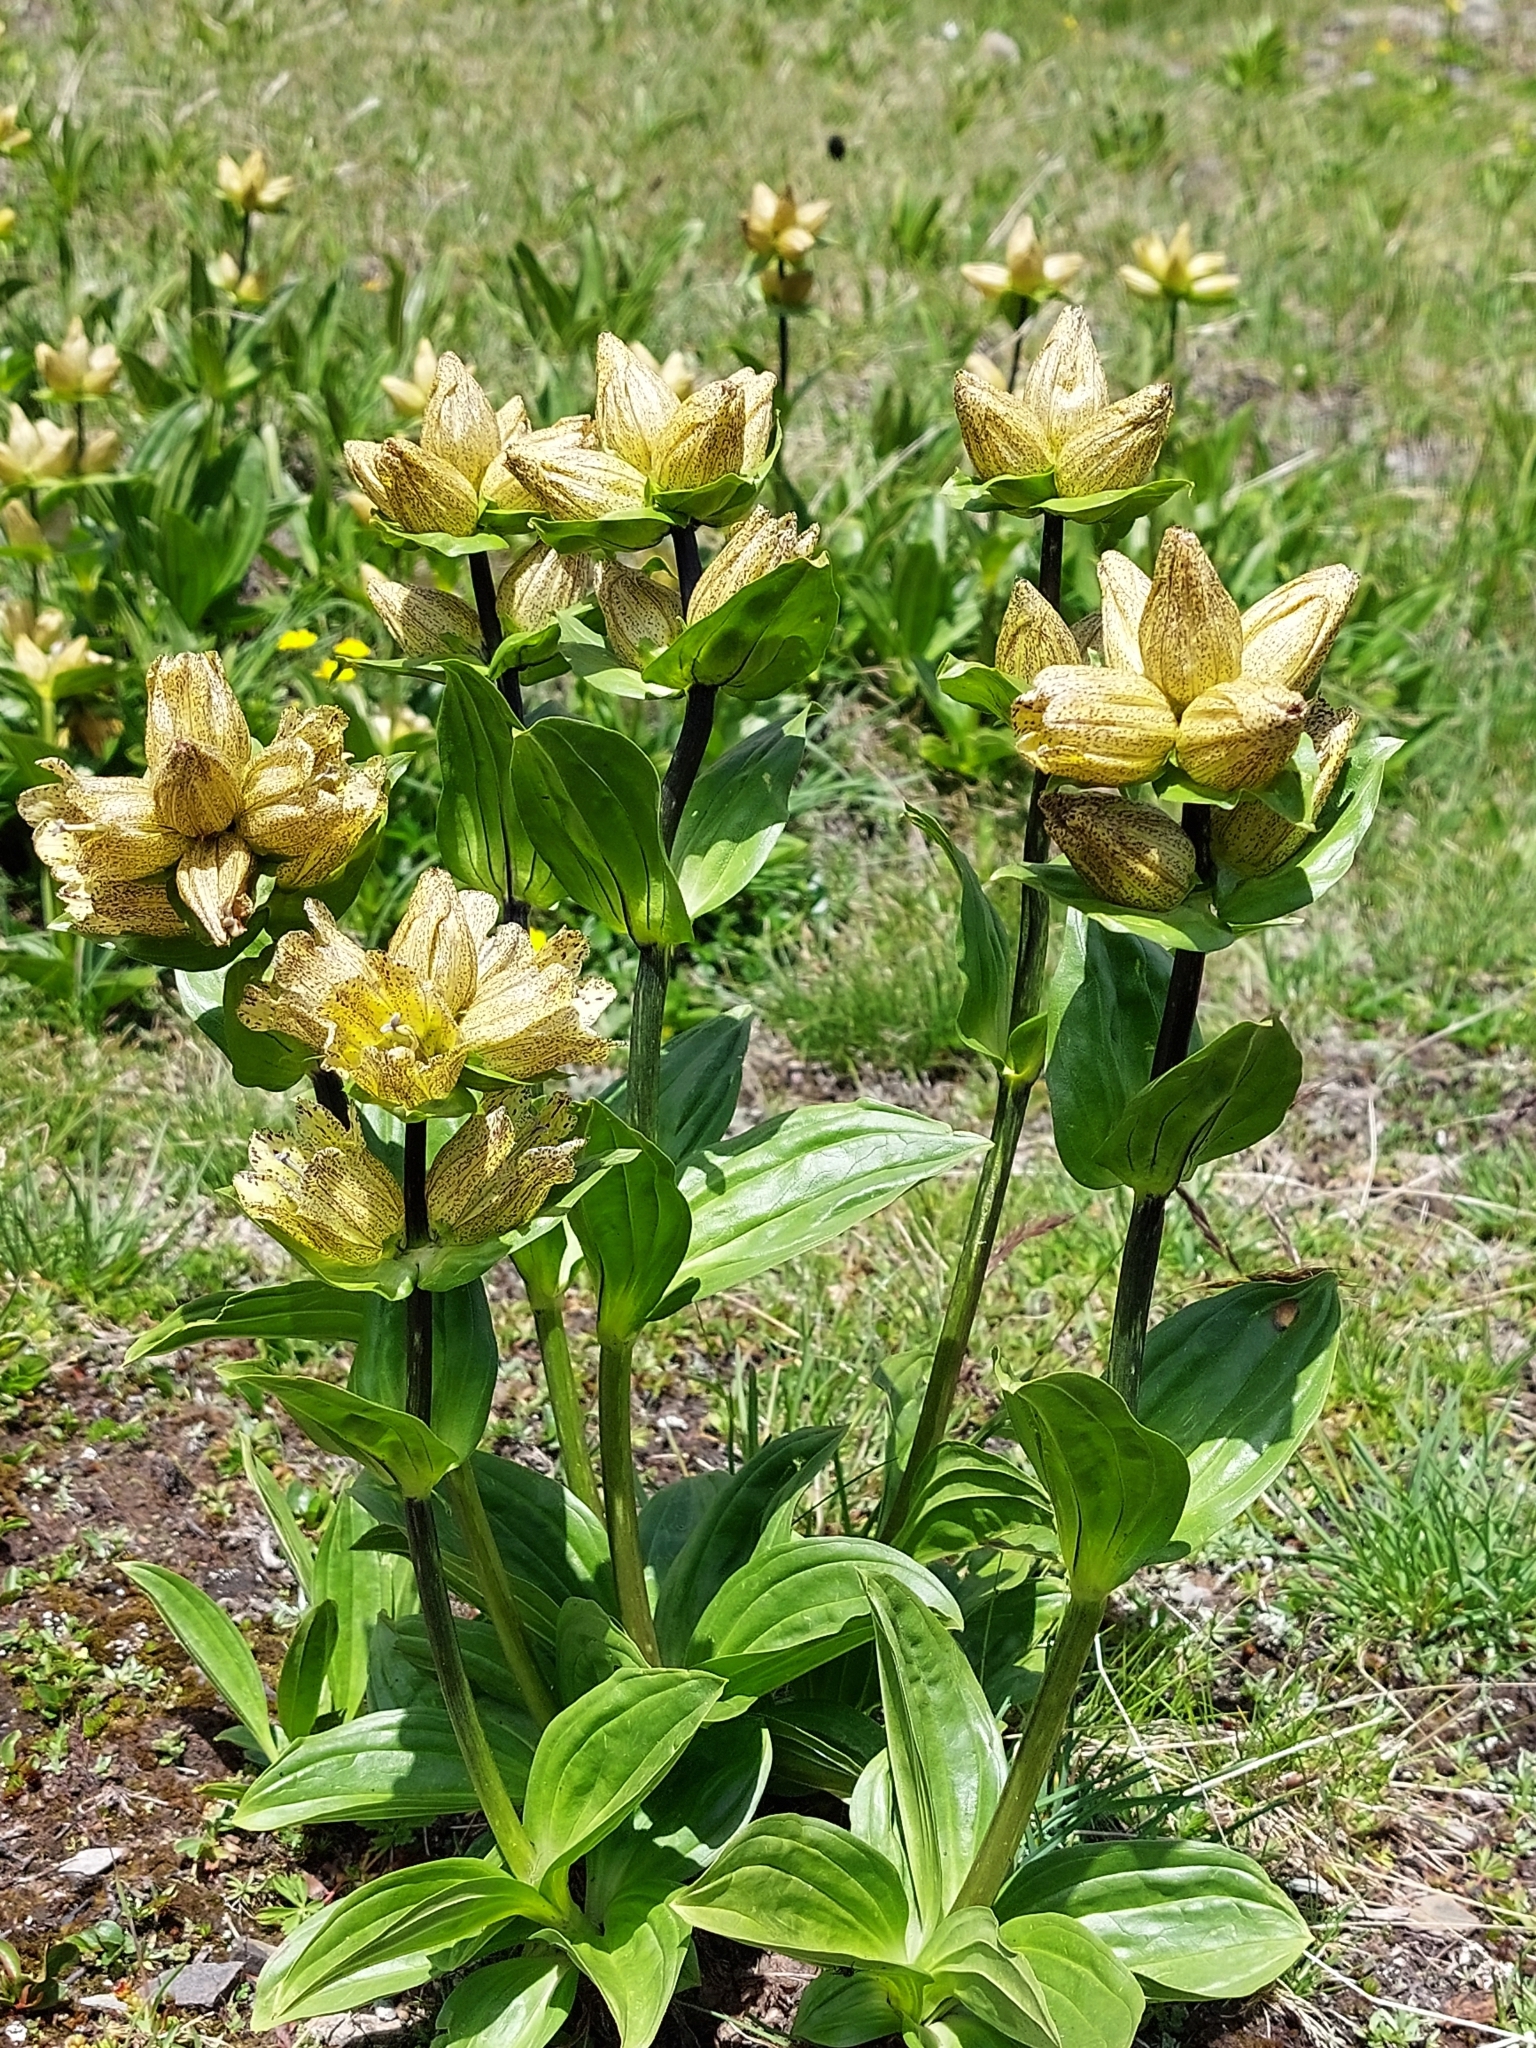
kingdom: Plantae
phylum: Tracheophyta
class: Magnoliopsida
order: Gentianales
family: Gentianaceae
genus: Gentiana
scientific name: Gentiana punctata
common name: Spotted gentian
